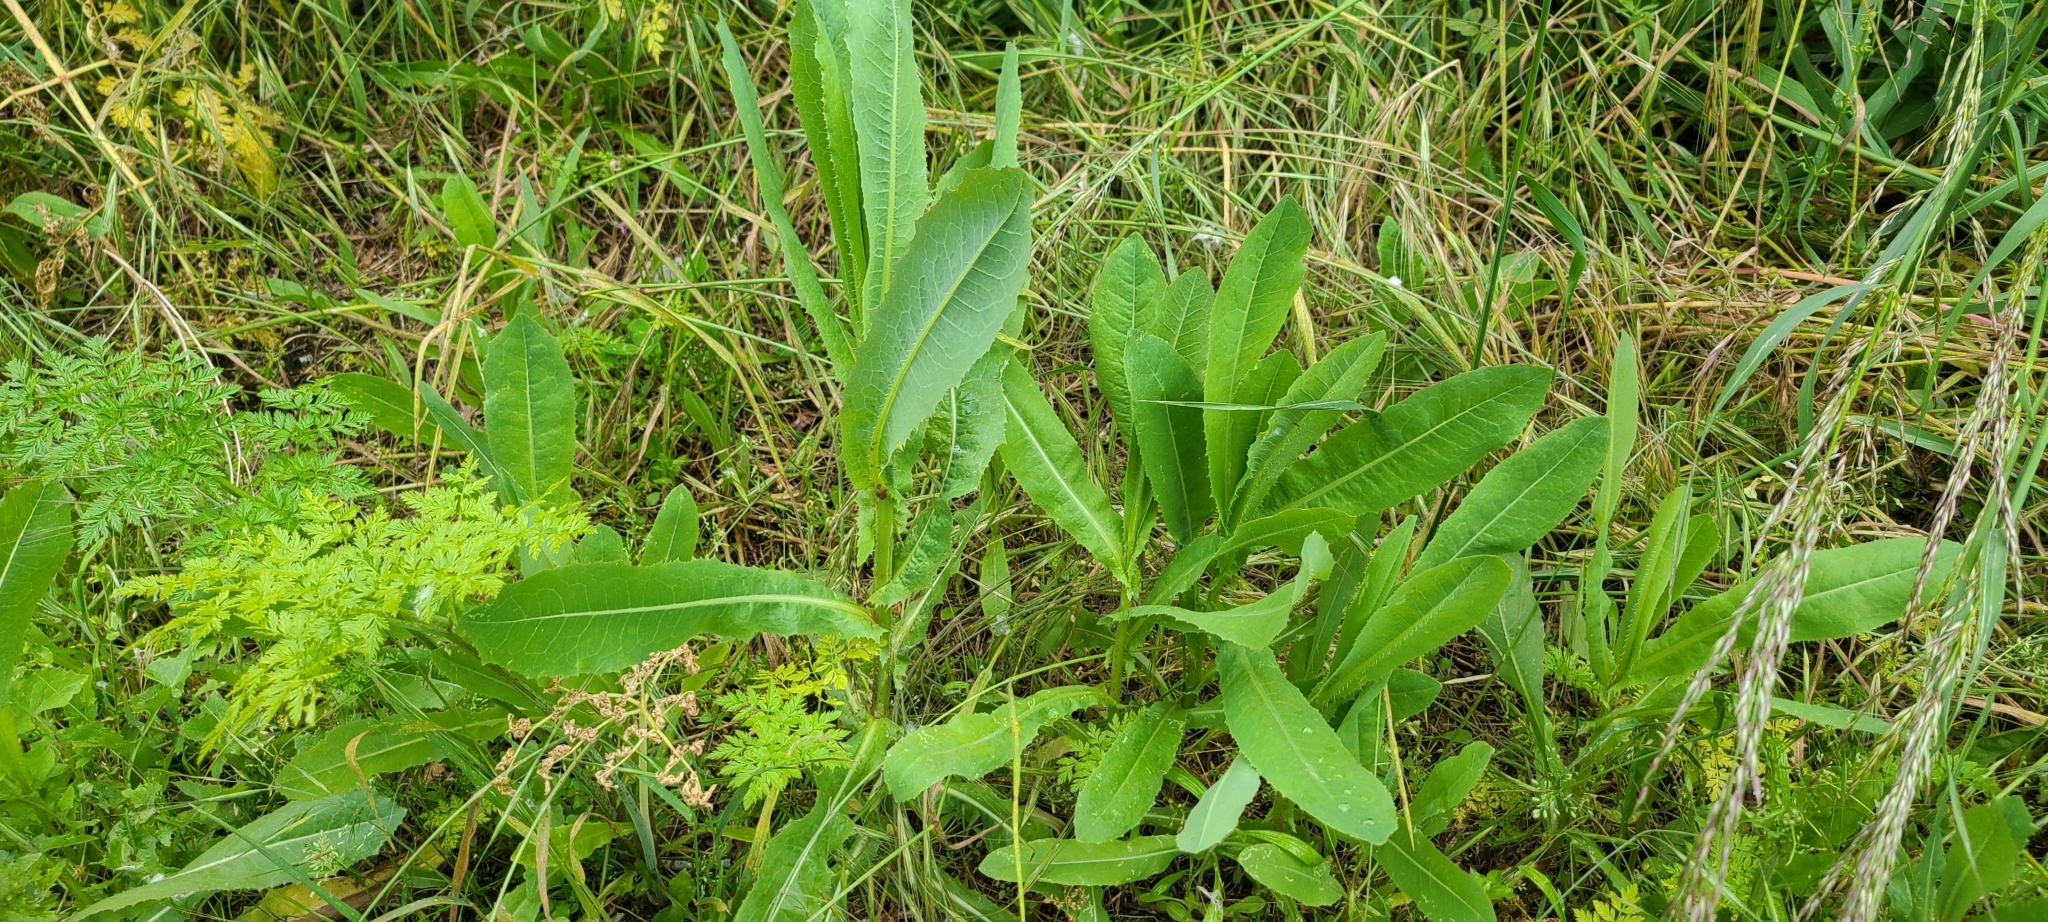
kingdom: Plantae
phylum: Tracheophyta
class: Magnoliopsida
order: Asterales
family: Asteraceae
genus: Lactuca
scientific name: Lactuca serriola
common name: Prickly lettuce
